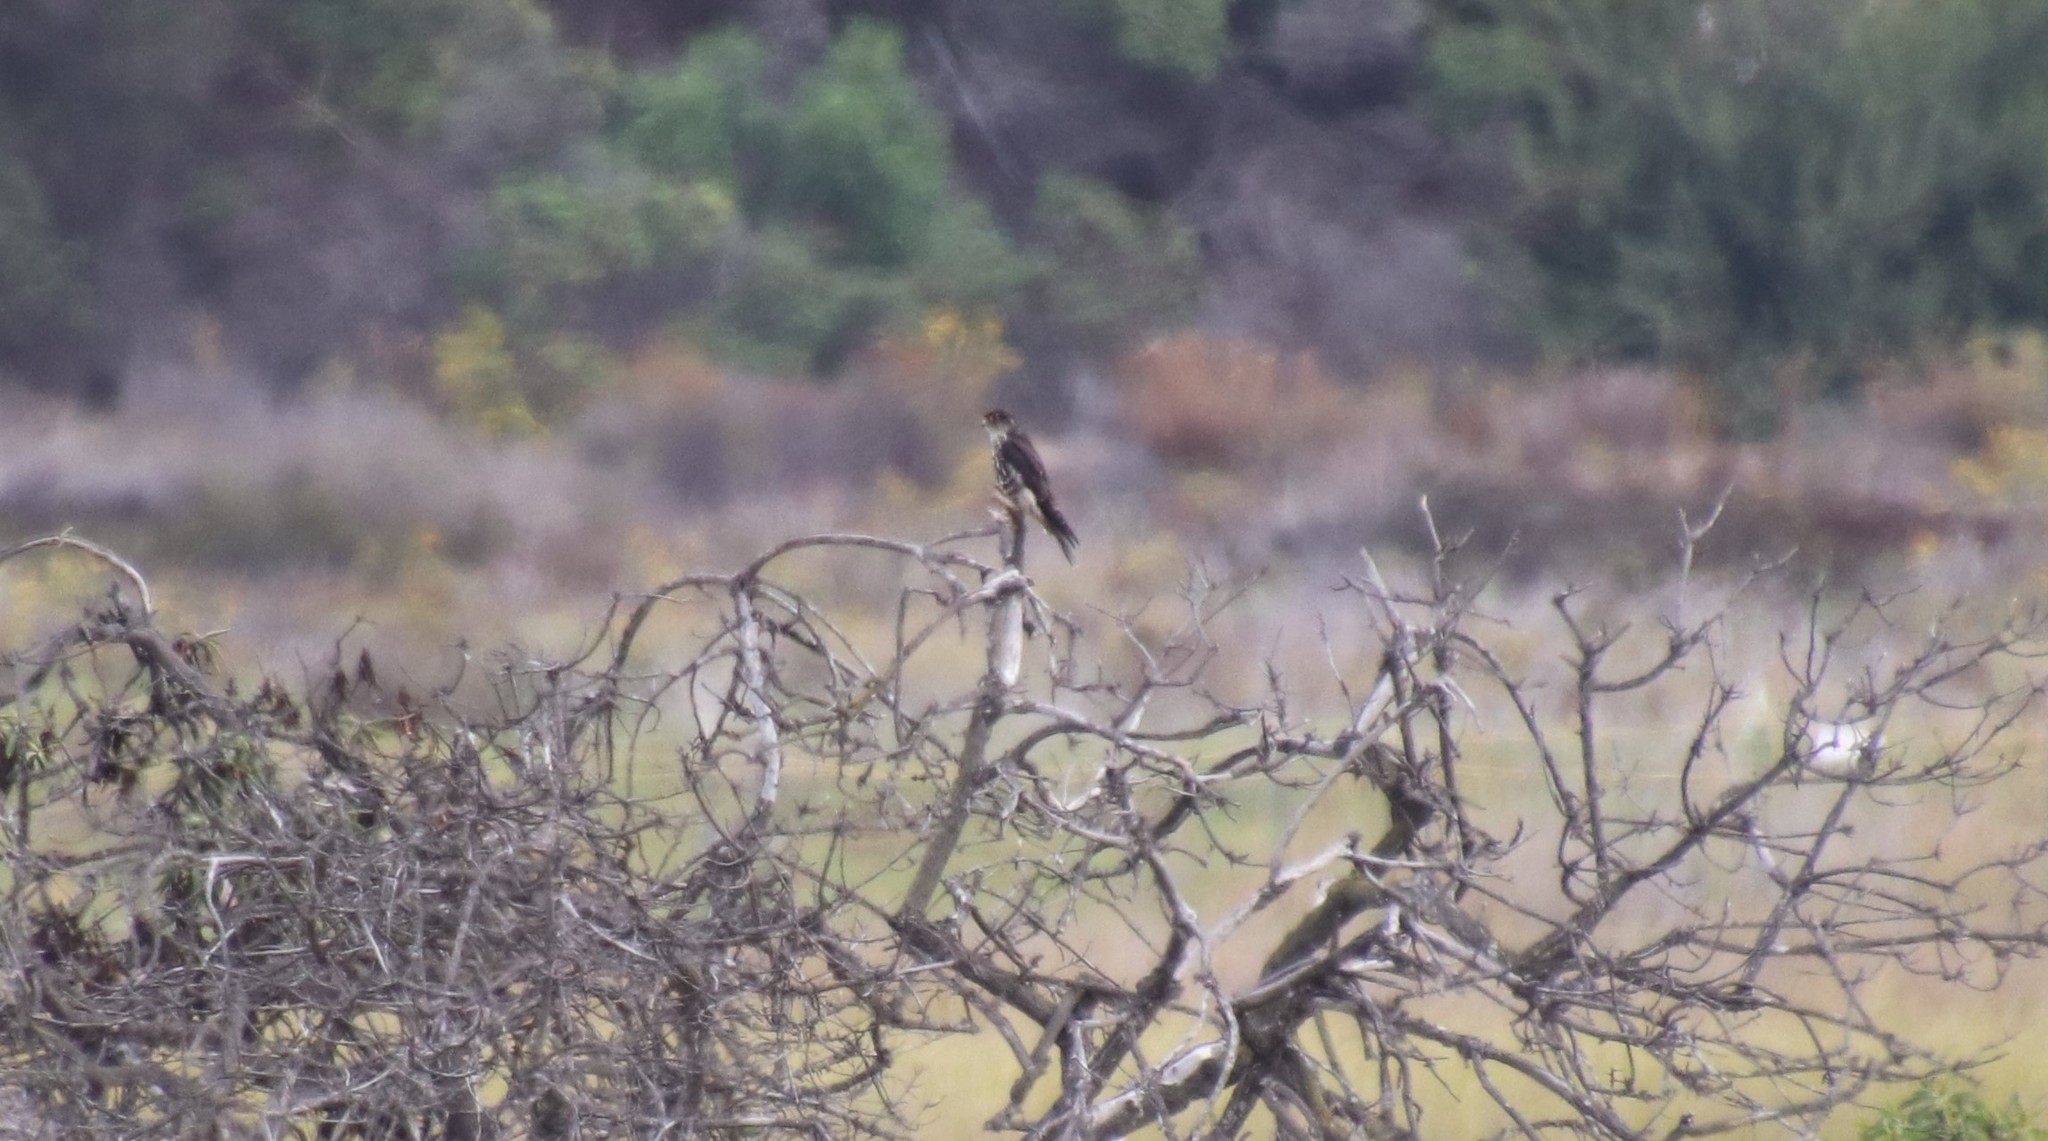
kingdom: Animalia
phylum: Chordata
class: Aves
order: Falconiformes
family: Falconidae
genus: Falco
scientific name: Falco columbarius
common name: Merlin
